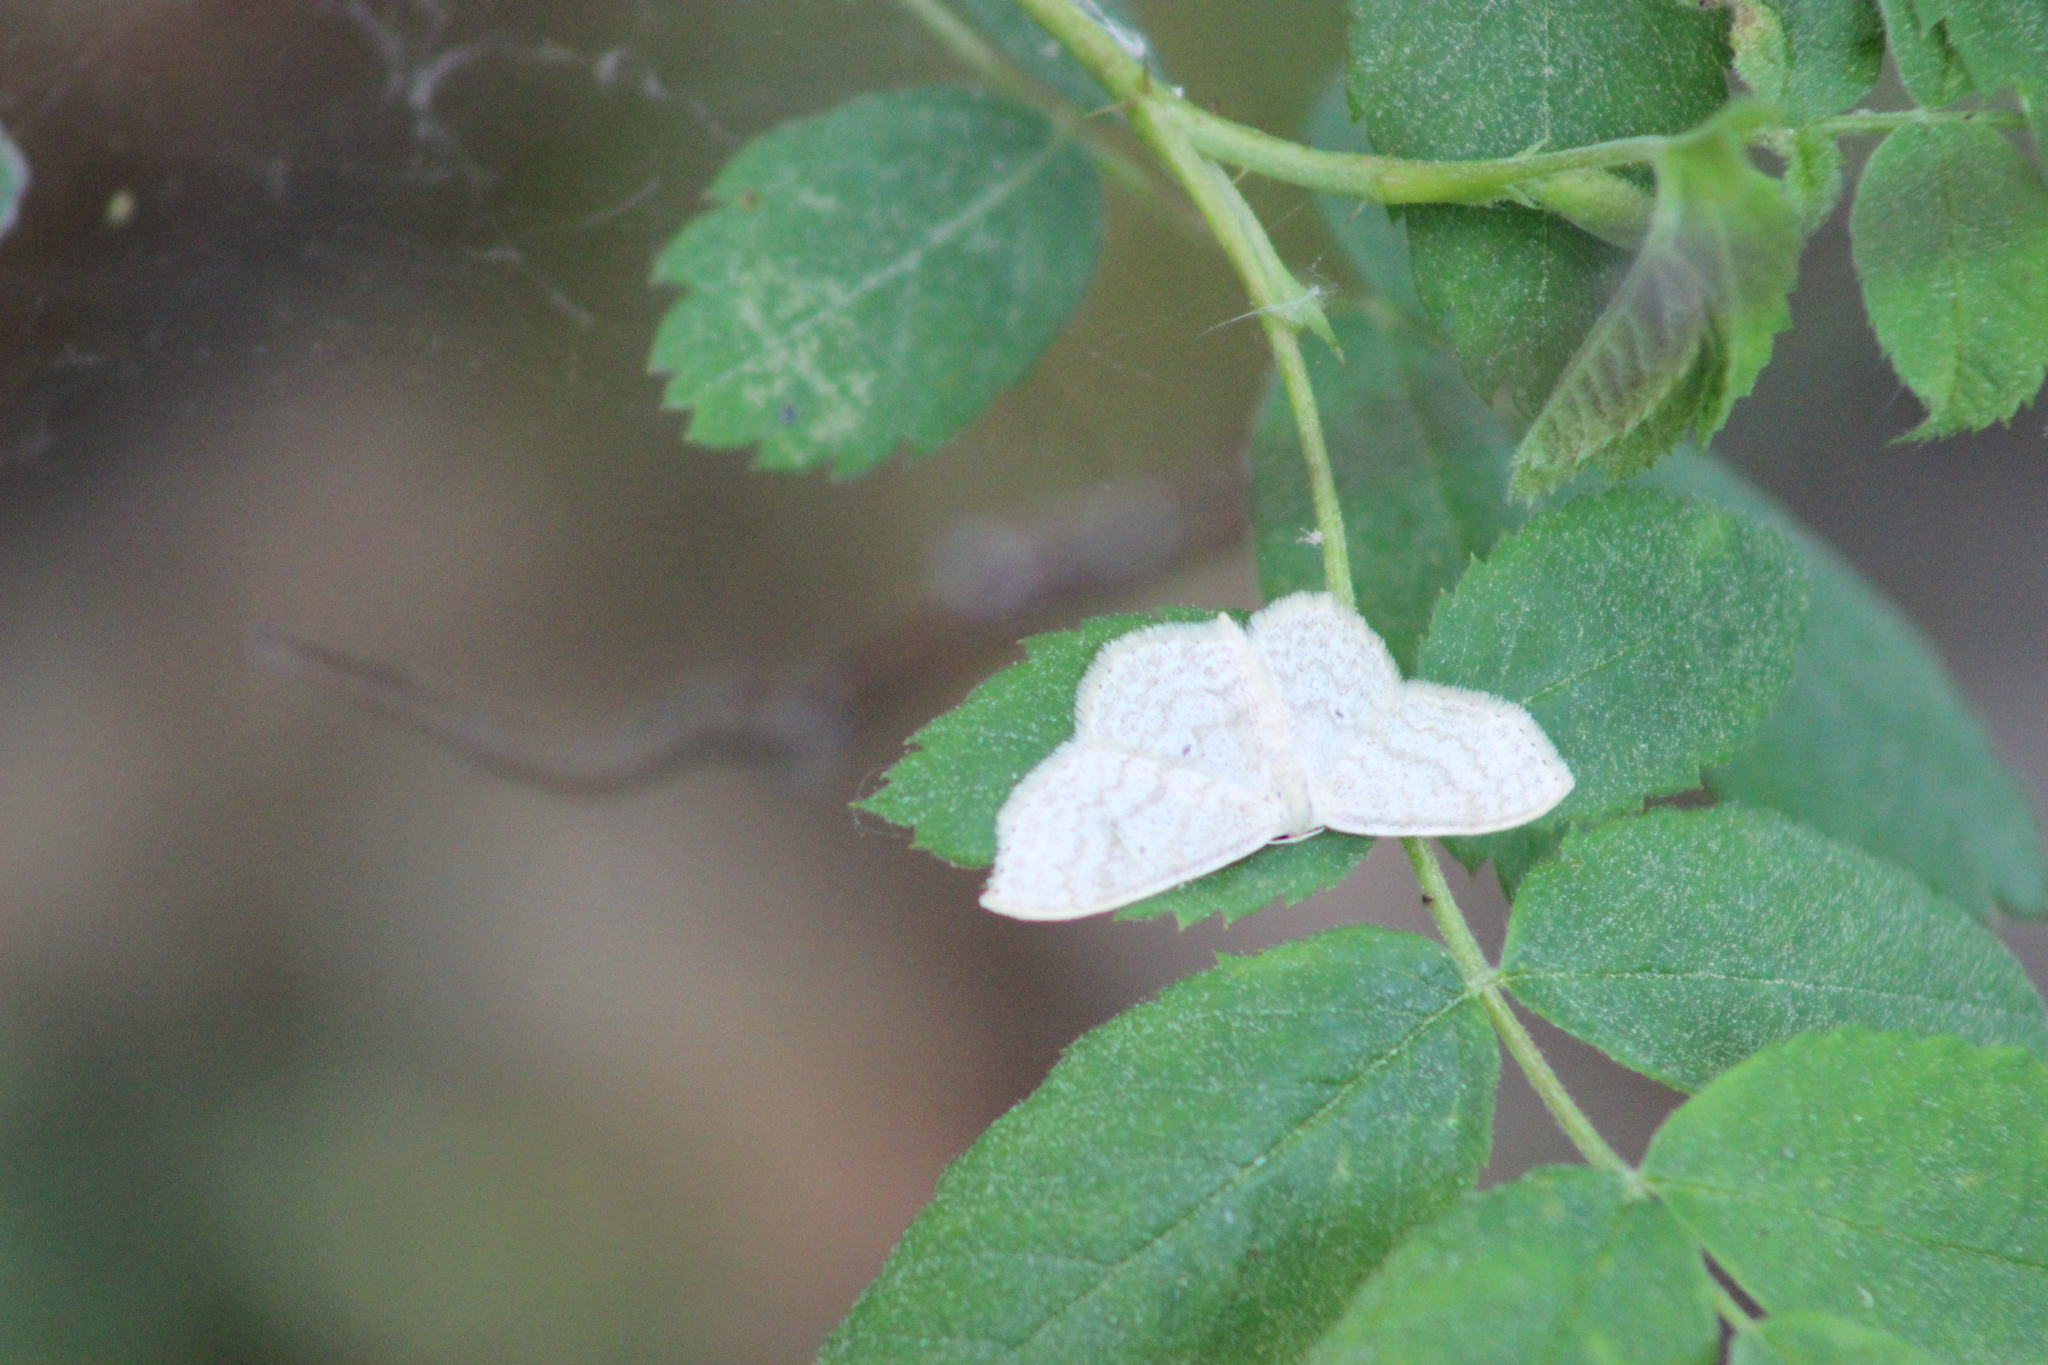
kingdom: Animalia
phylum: Arthropoda
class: Insecta
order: Lepidoptera
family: Geometridae
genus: Scopula
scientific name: Scopula floslactata
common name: Cream wave
